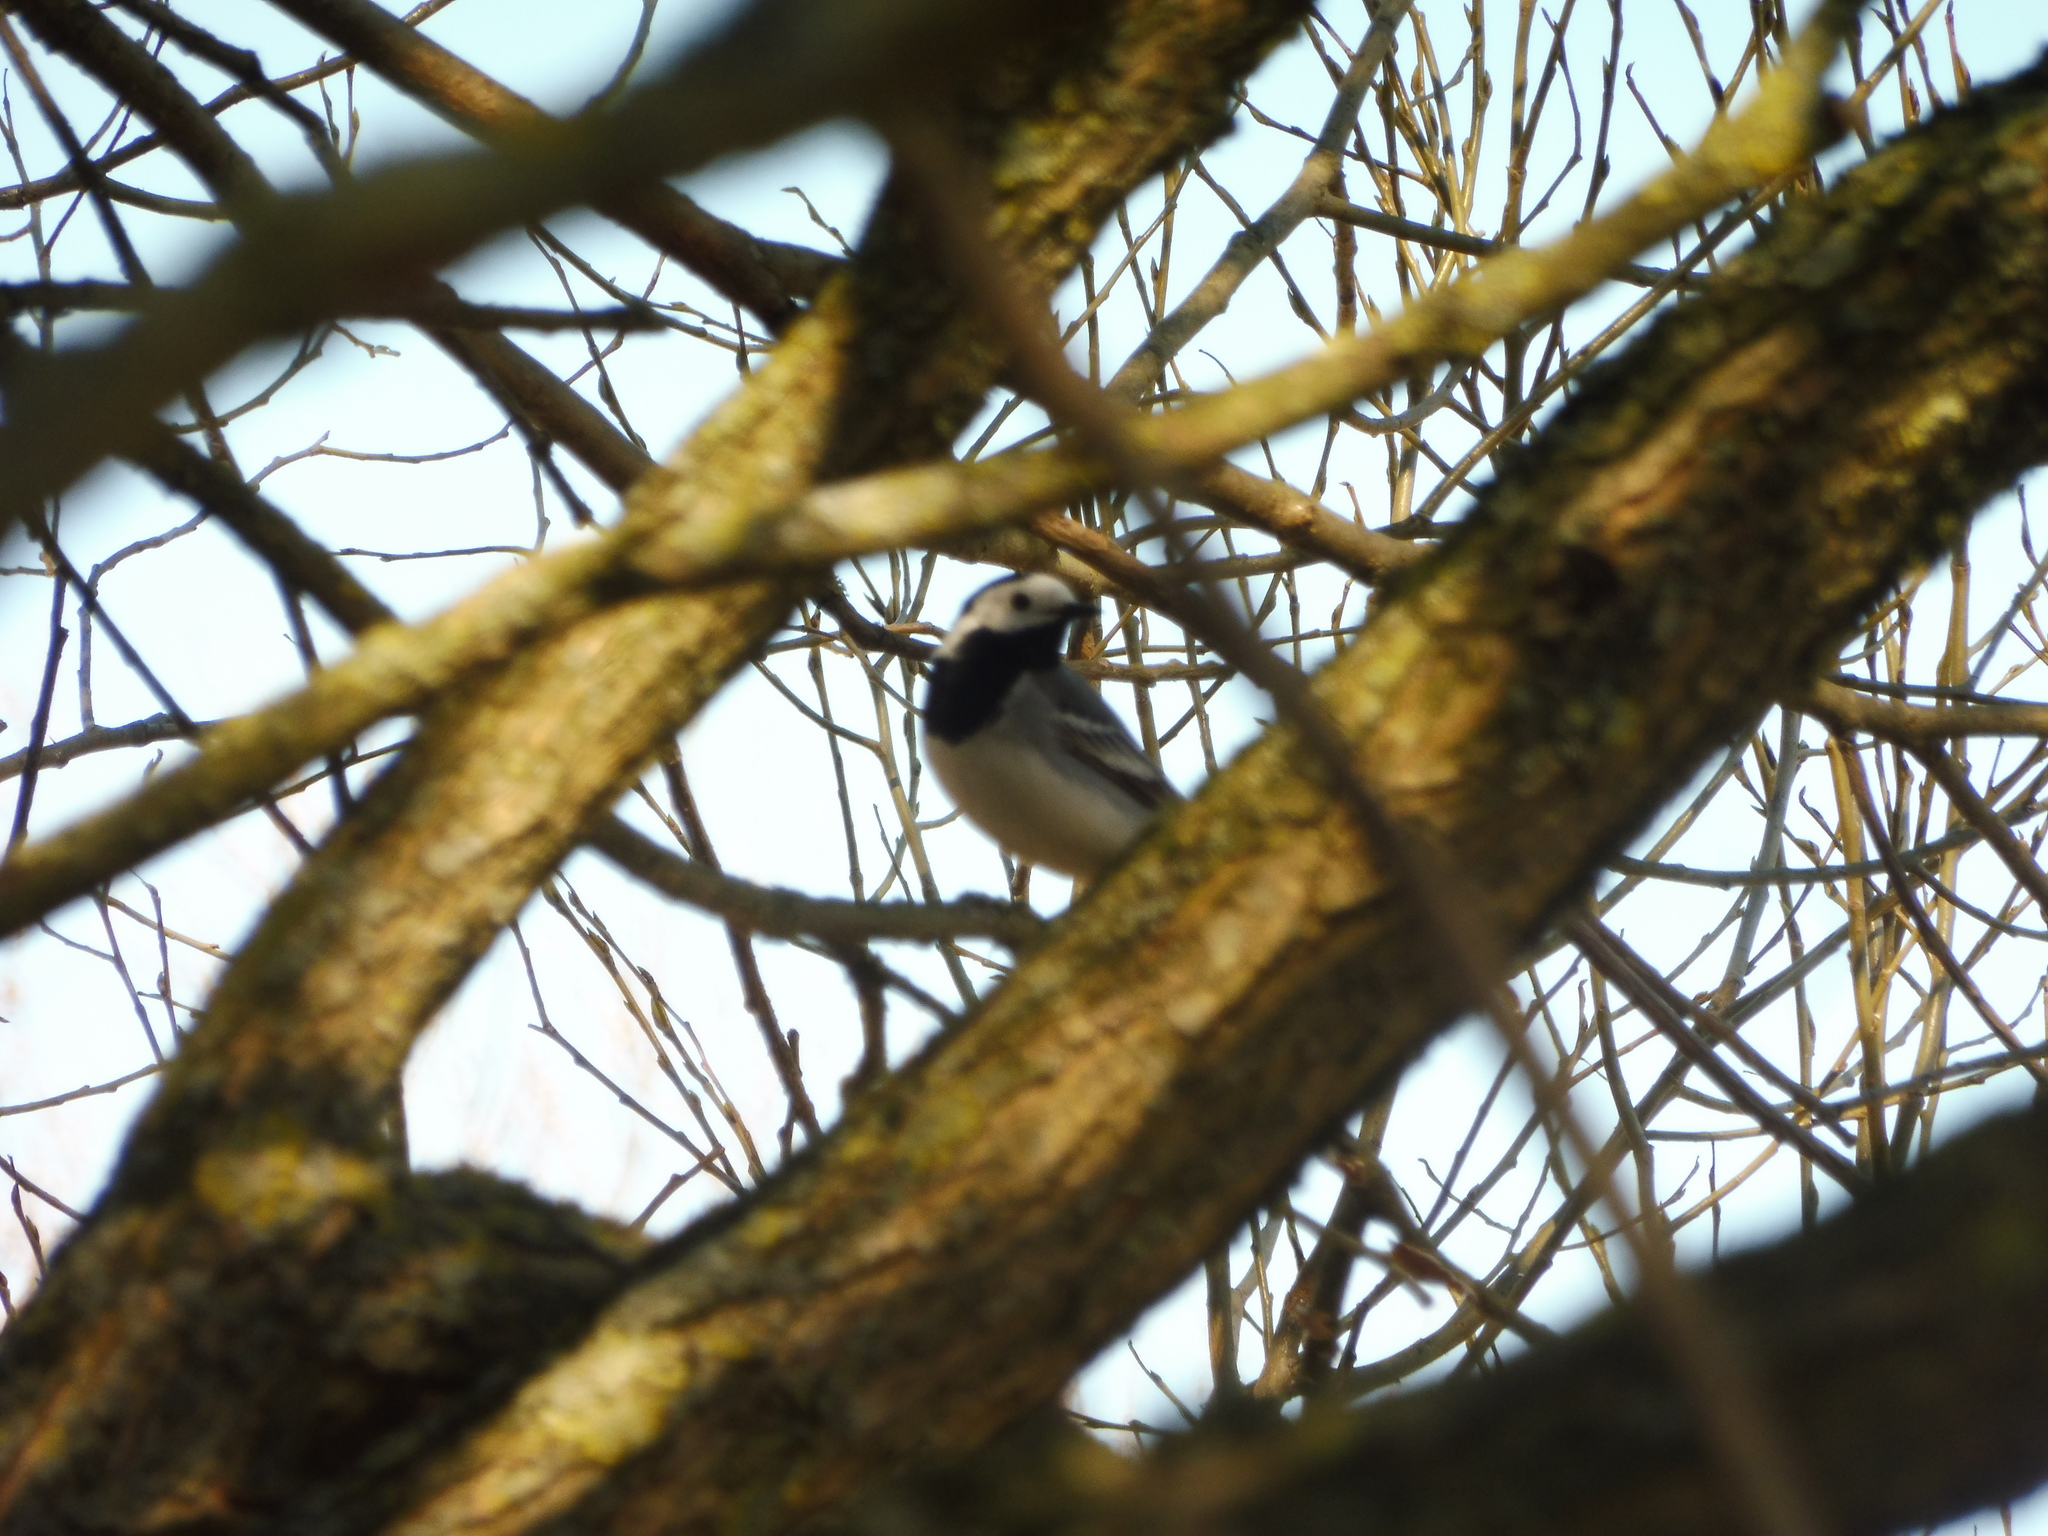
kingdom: Animalia
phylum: Chordata
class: Aves
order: Passeriformes
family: Motacillidae
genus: Motacilla
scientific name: Motacilla alba
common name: White wagtail
